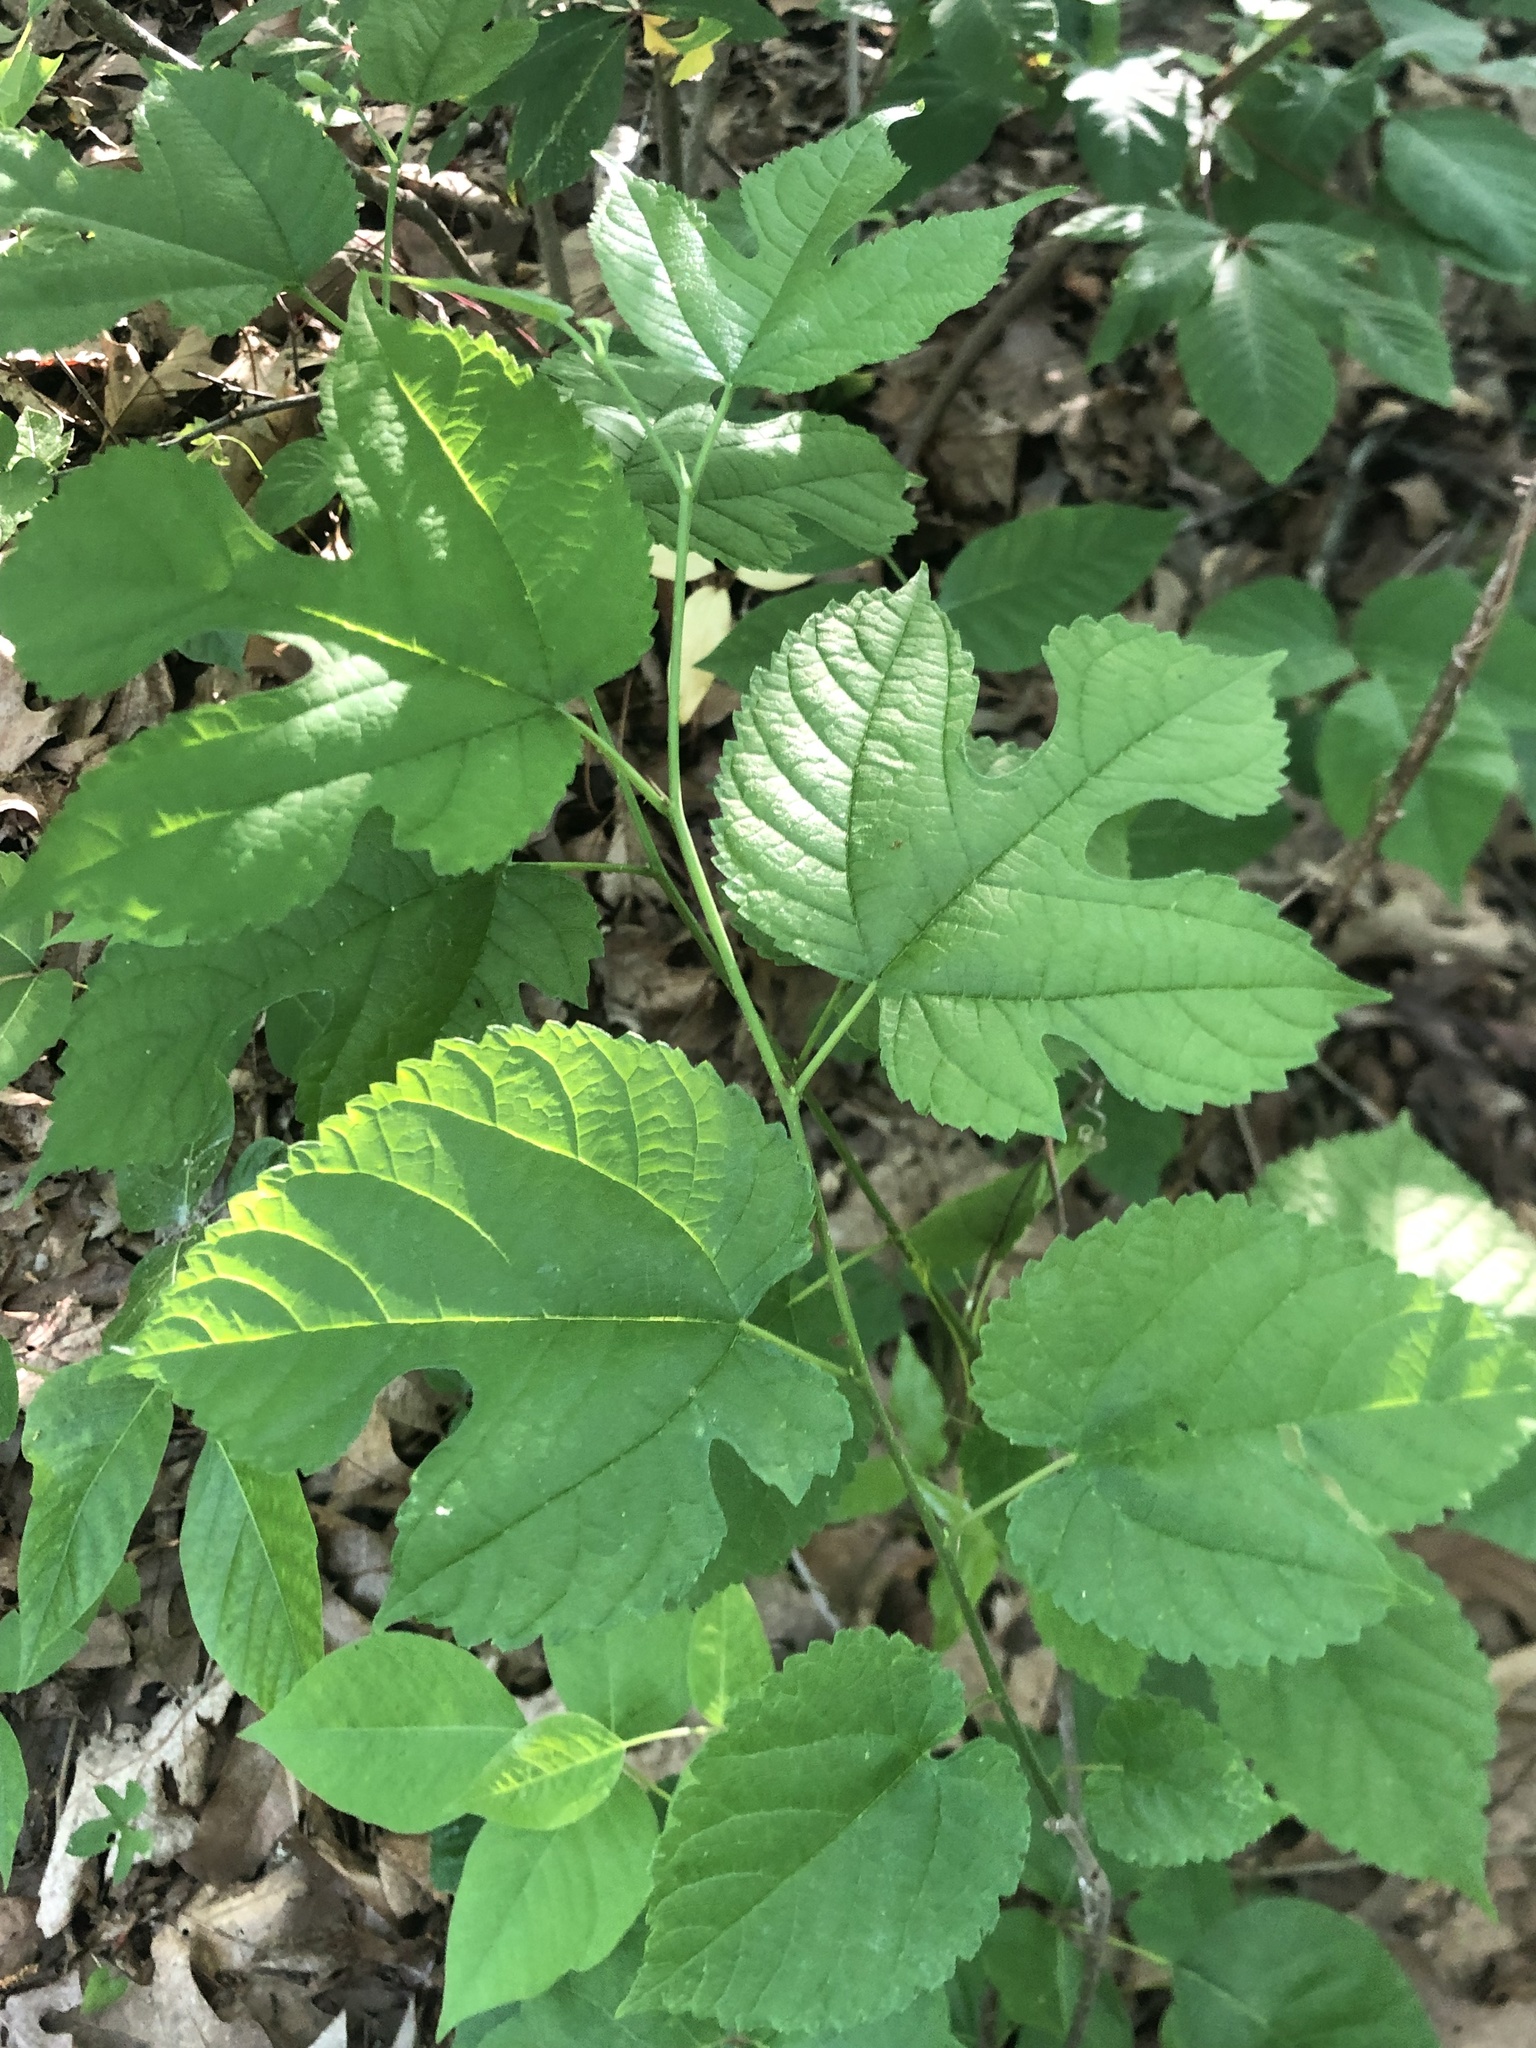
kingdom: Plantae
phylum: Tracheophyta
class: Magnoliopsida
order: Rosales
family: Moraceae
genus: Morus
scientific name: Morus rubra
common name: Red mulberry
